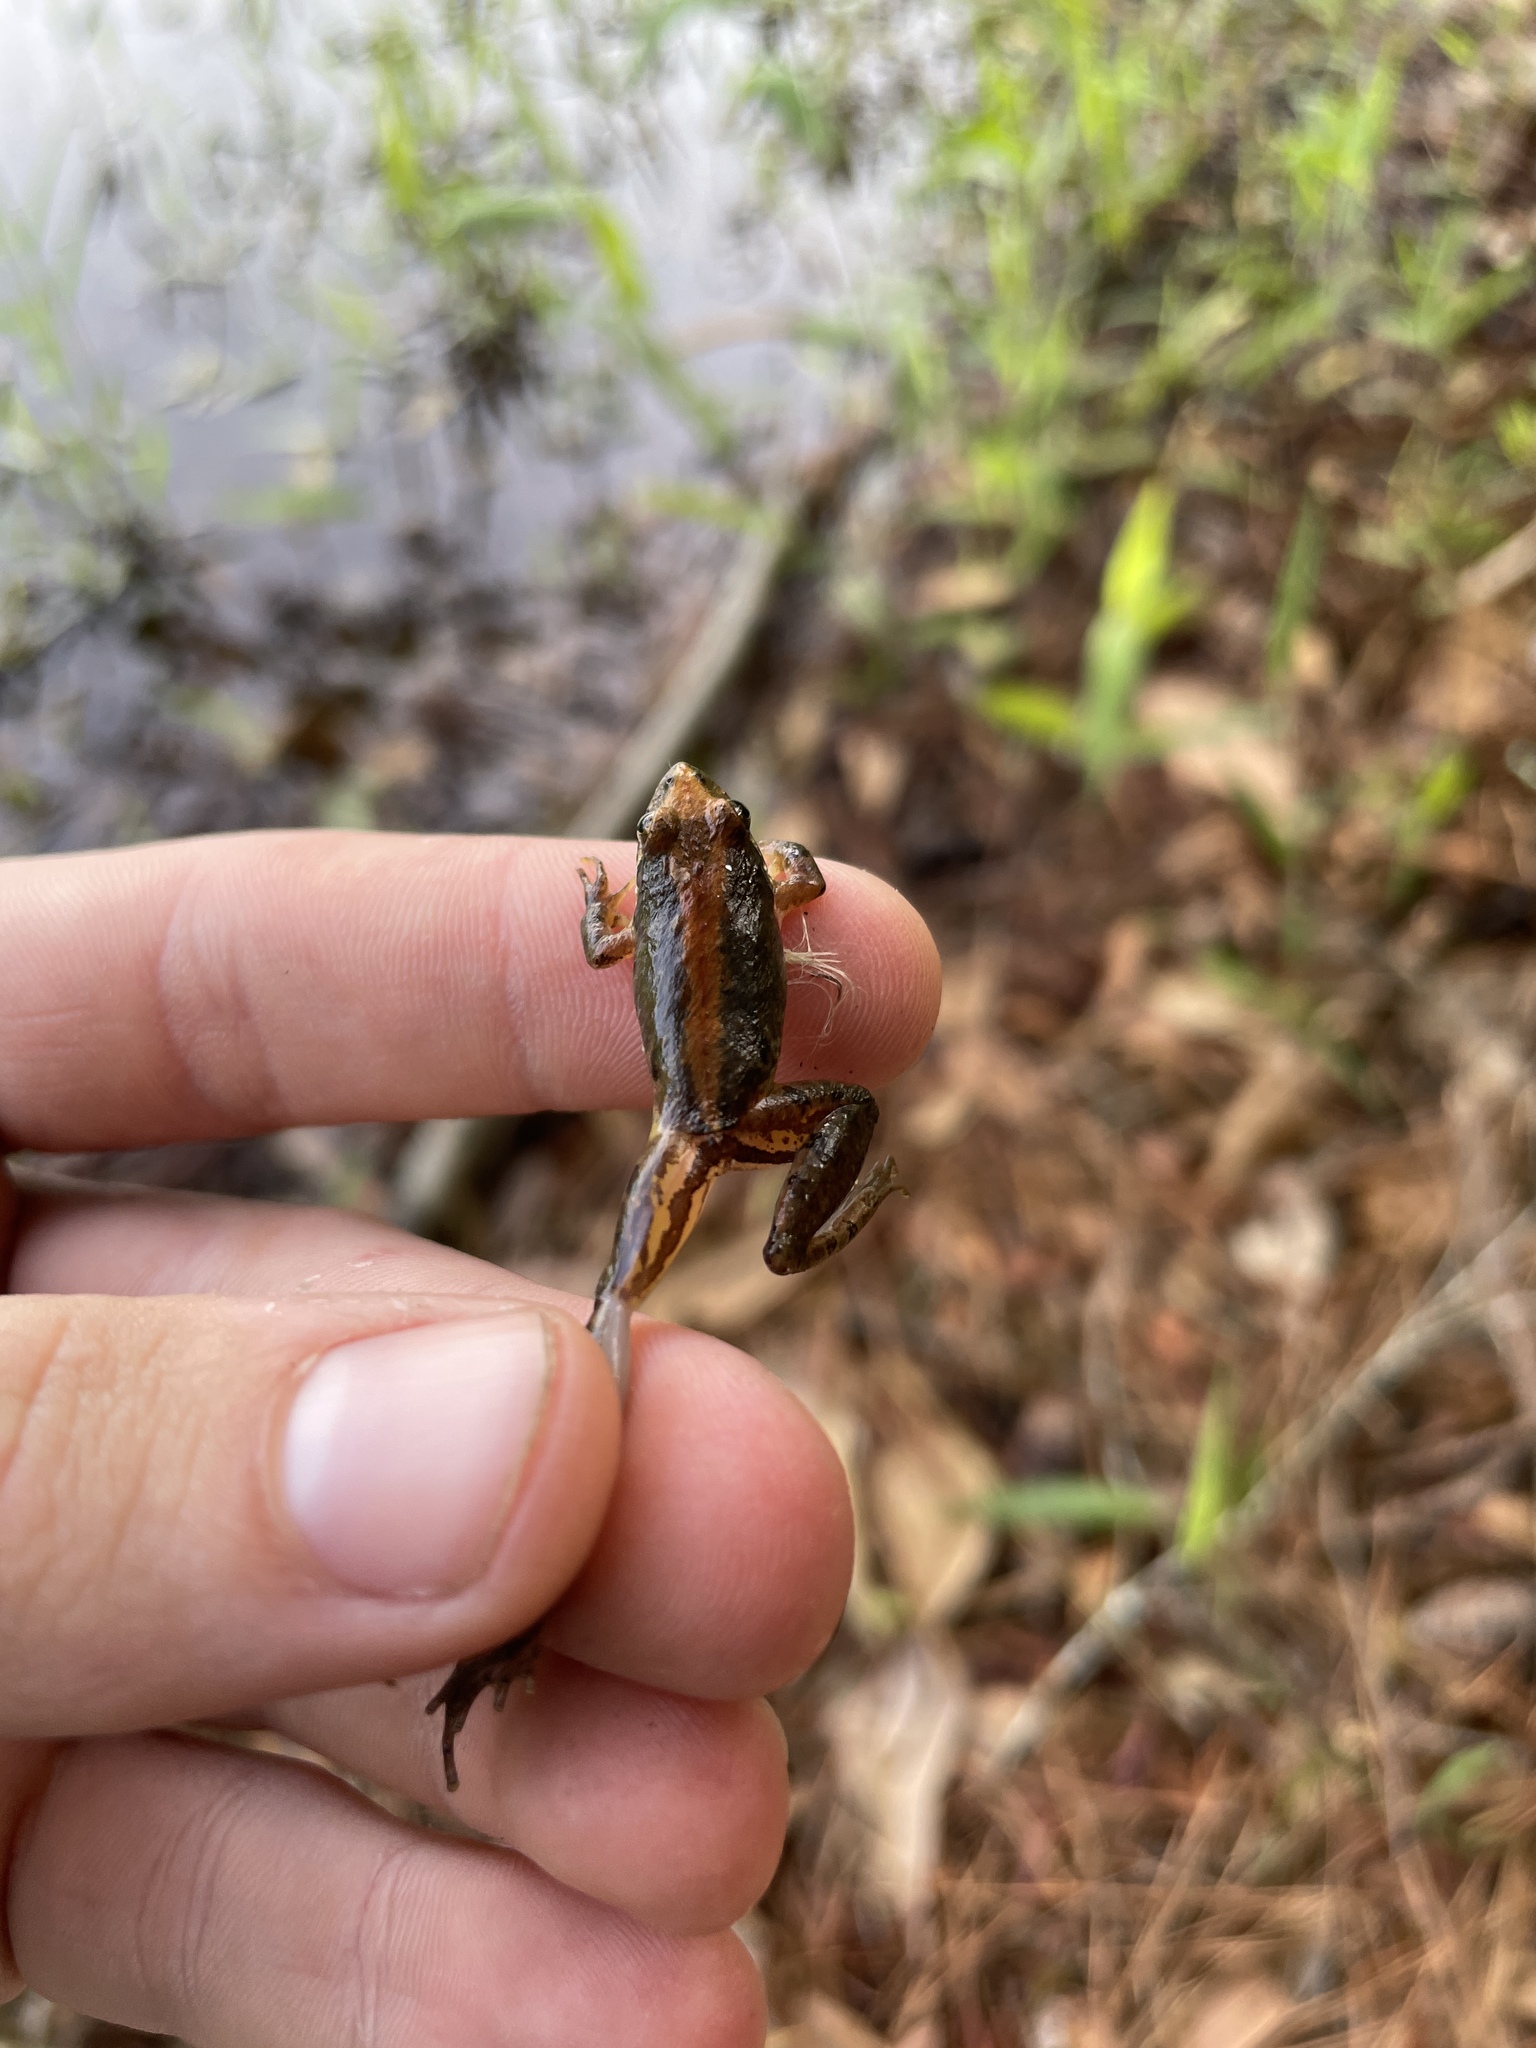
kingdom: Animalia
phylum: Chordata
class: Amphibia
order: Anura
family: Hylidae
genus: Acris
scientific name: Acris gryllus
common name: Southern cricket frog
